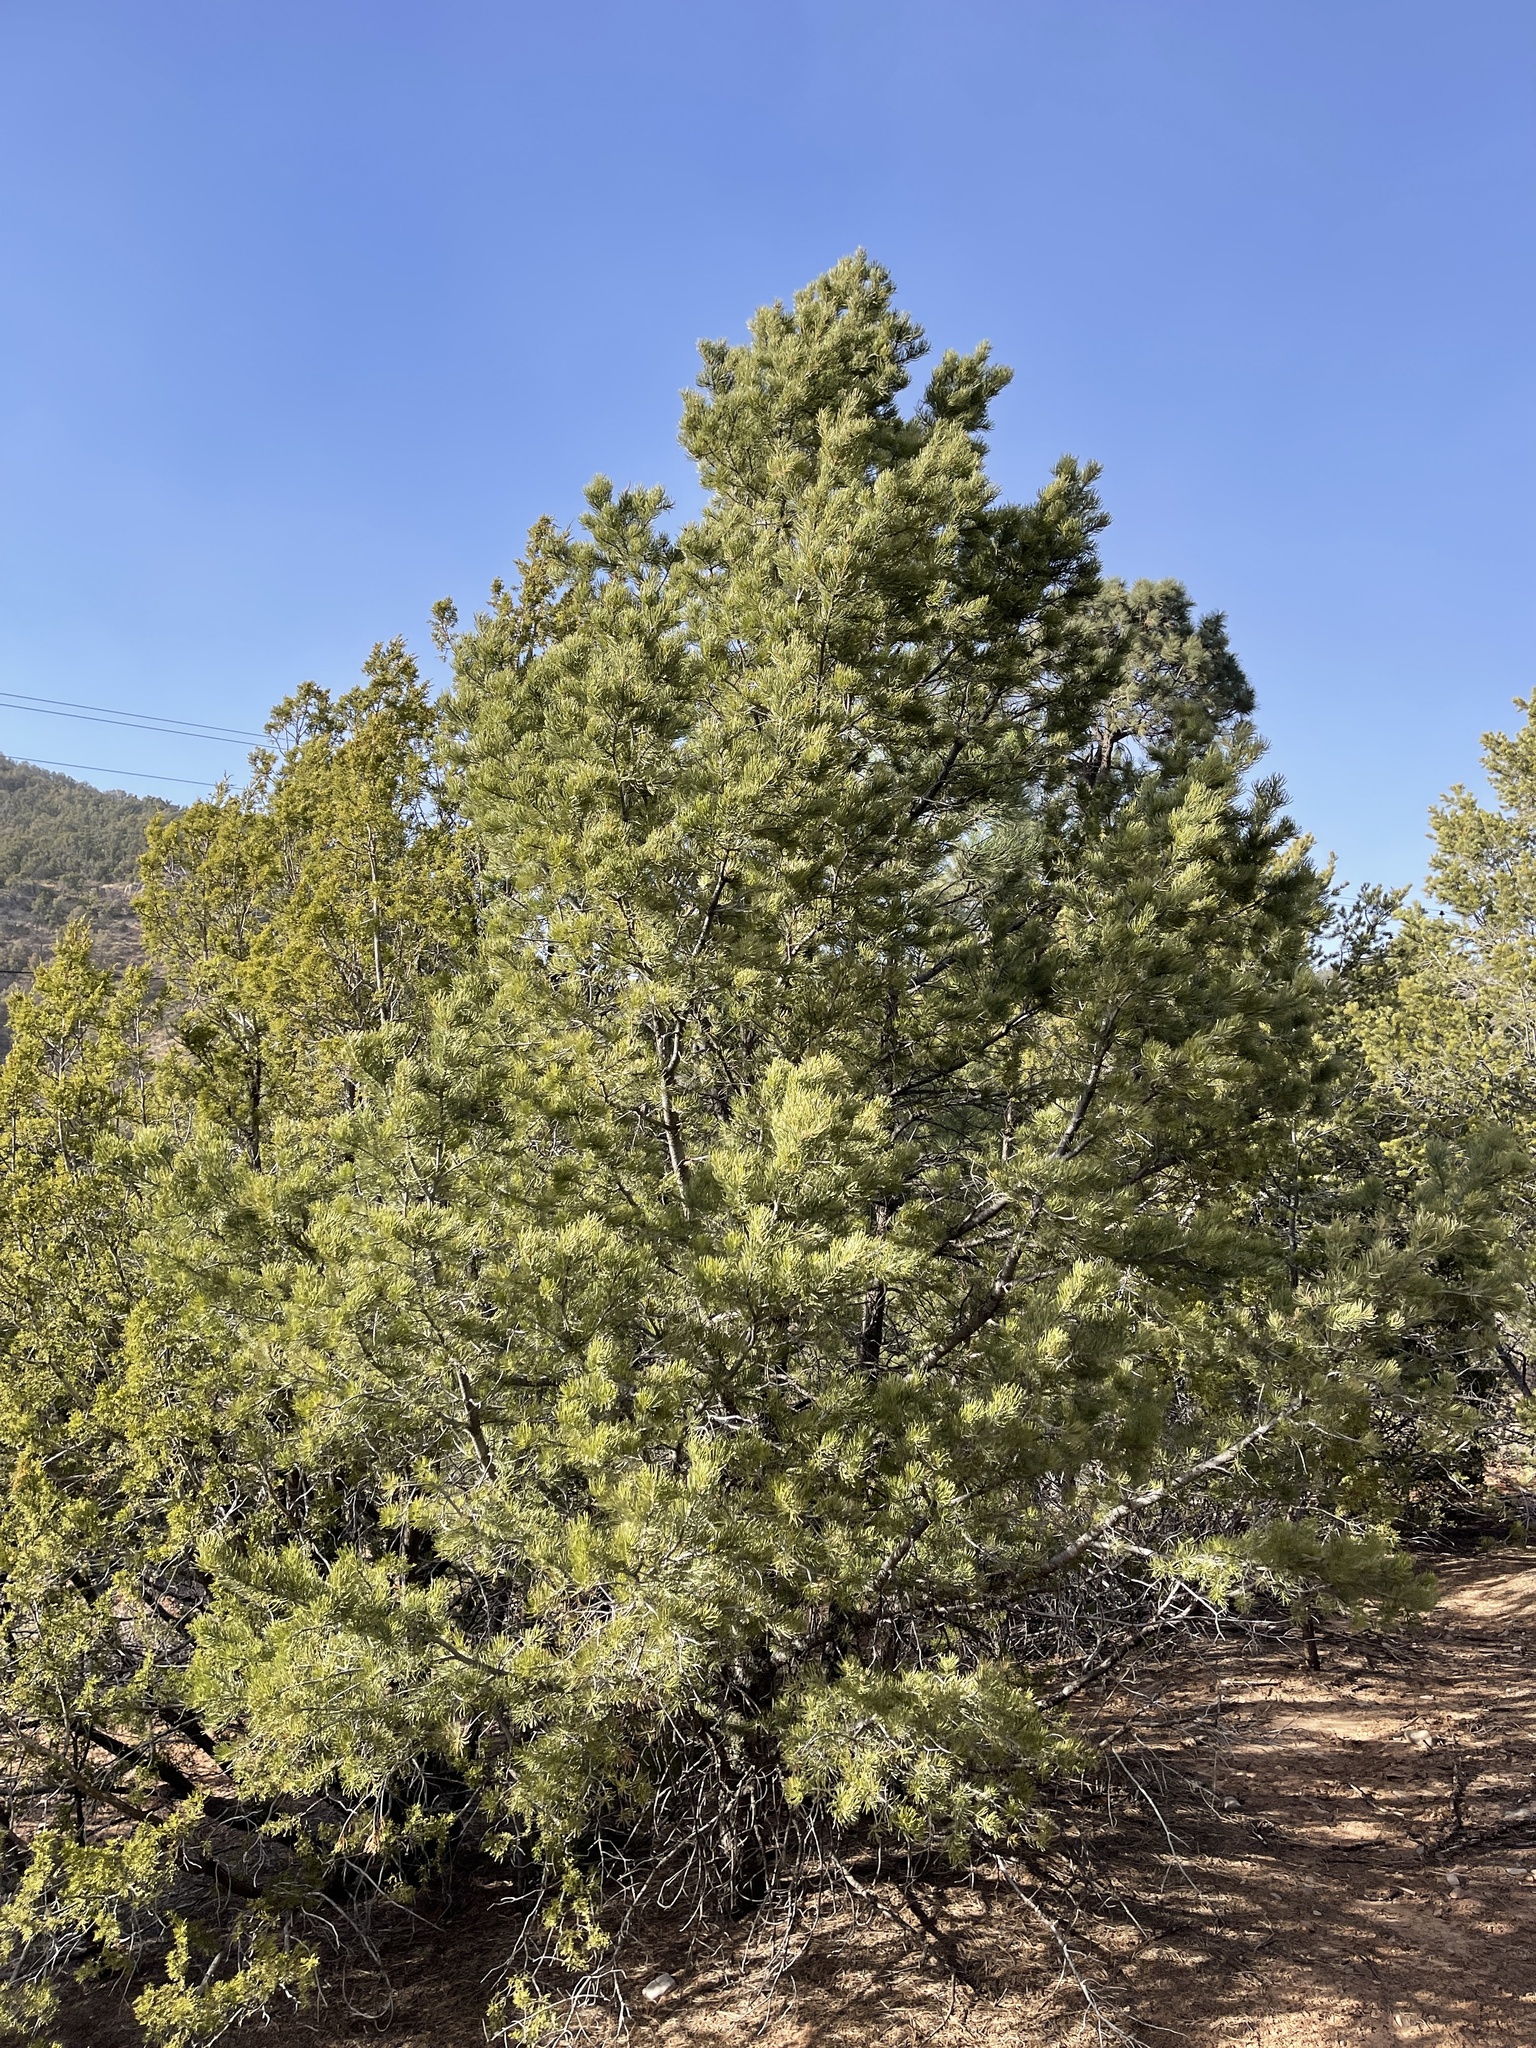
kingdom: Plantae
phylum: Tracheophyta
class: Pinopsida
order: Pinales
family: Pinaceae
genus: Pinus
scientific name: Pinus edulis
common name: Colorado pinyon
